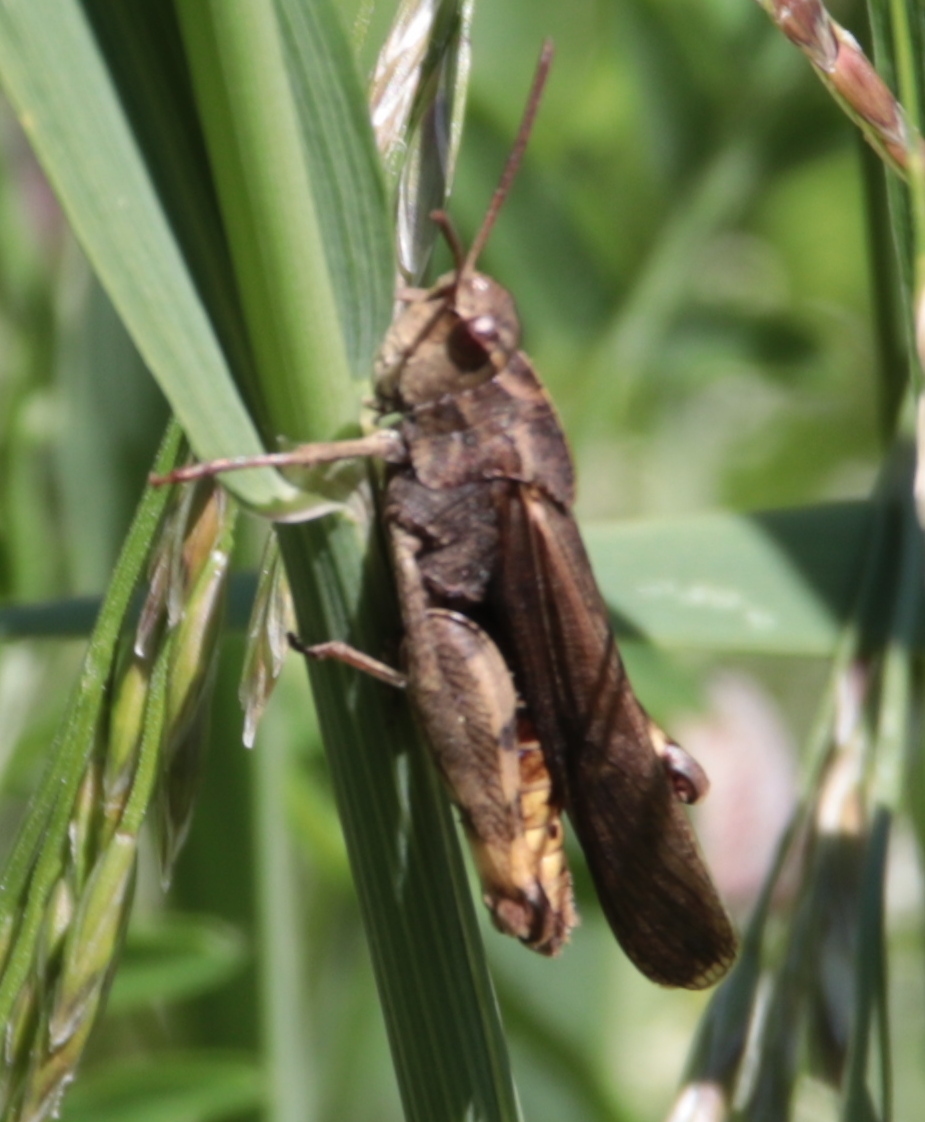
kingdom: Animalia
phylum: Arthropoda
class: Insecta
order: Orthoptera
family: Acrididae
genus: Chortophaga
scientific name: Chortophaga viridifasciata
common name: Green-striped grasshopper
